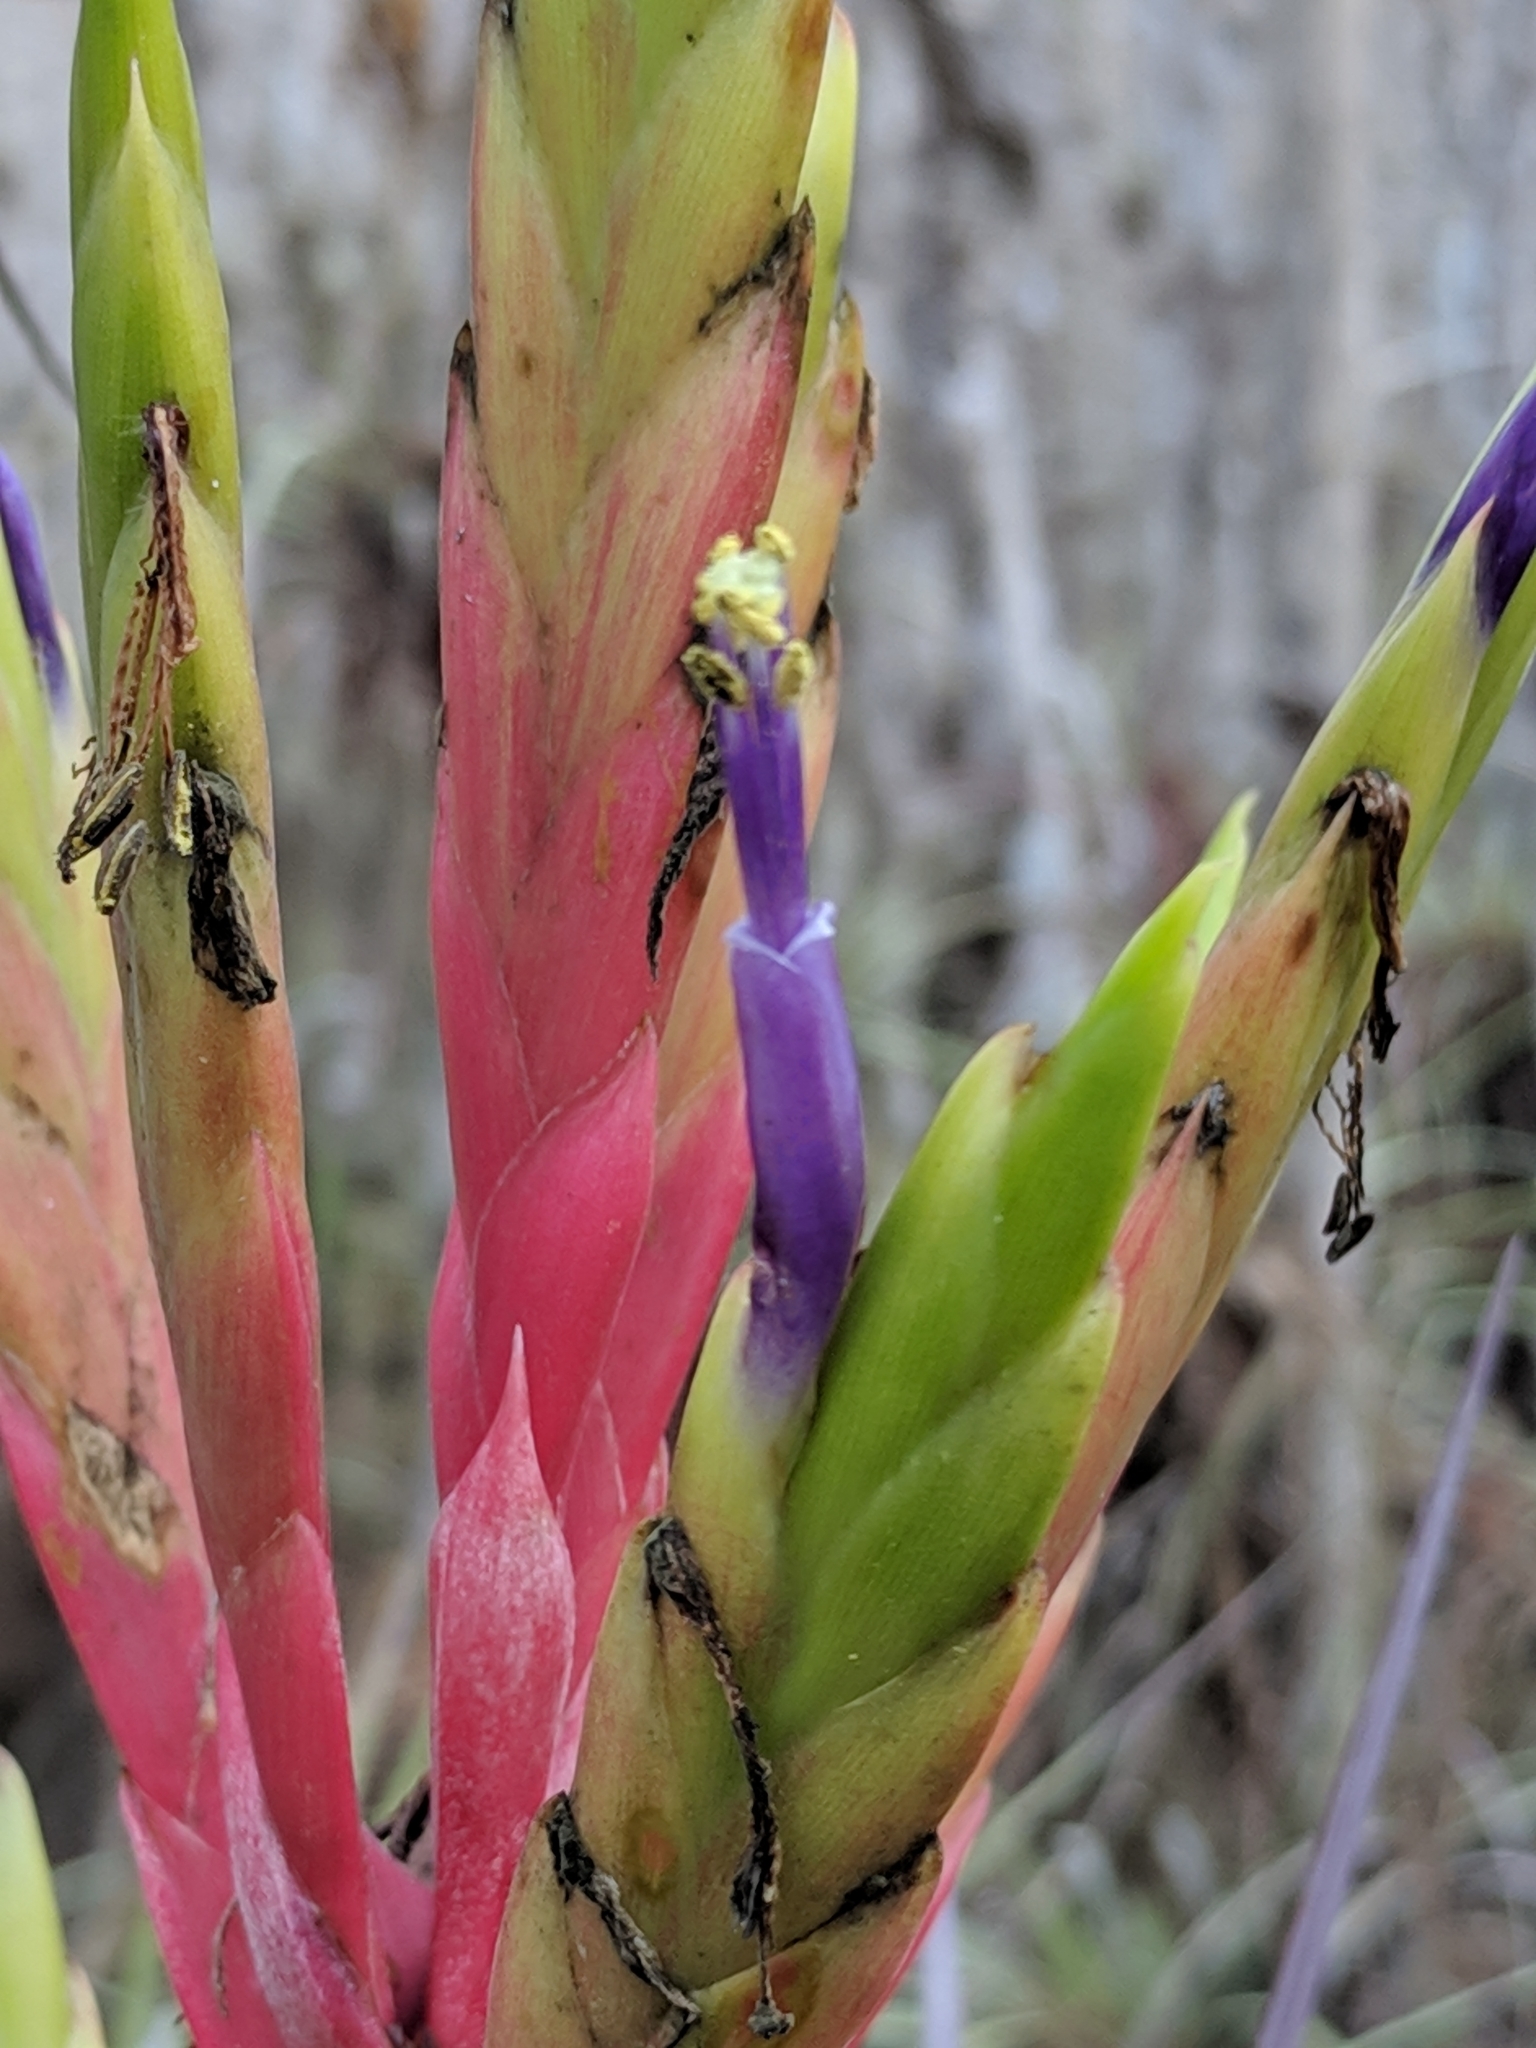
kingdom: Plantae
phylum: Tracheophyta
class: Liliopsida
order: Poales
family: Bromeliaceae
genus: Tillandsia
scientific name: Tillandsia fasciculata
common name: Giant airplant
